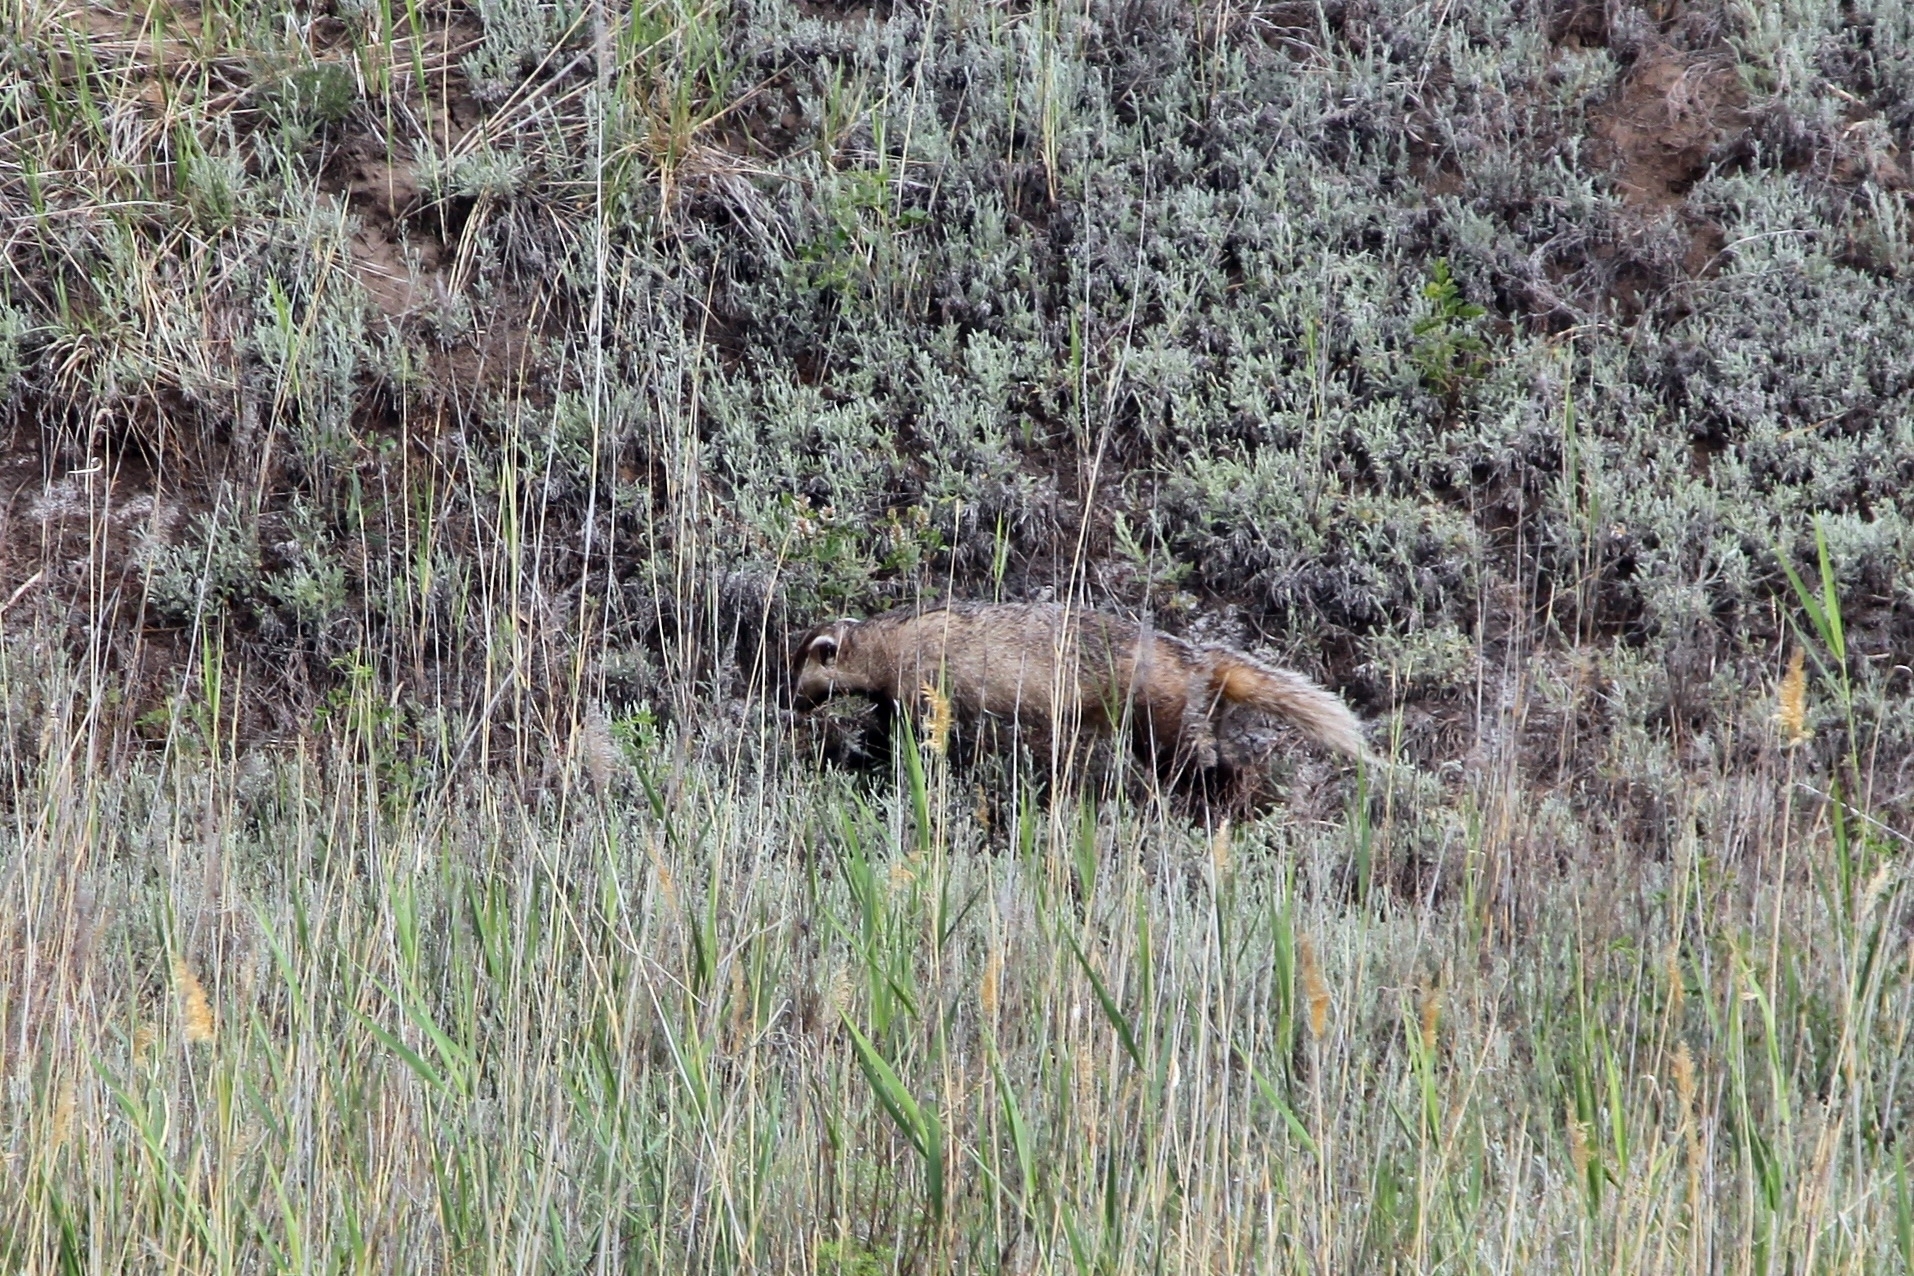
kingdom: Animalia
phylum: Chordata
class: Mammalia
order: Carnivora
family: Mustelidae
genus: Meles
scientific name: Meles leucurus
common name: Asian badger
